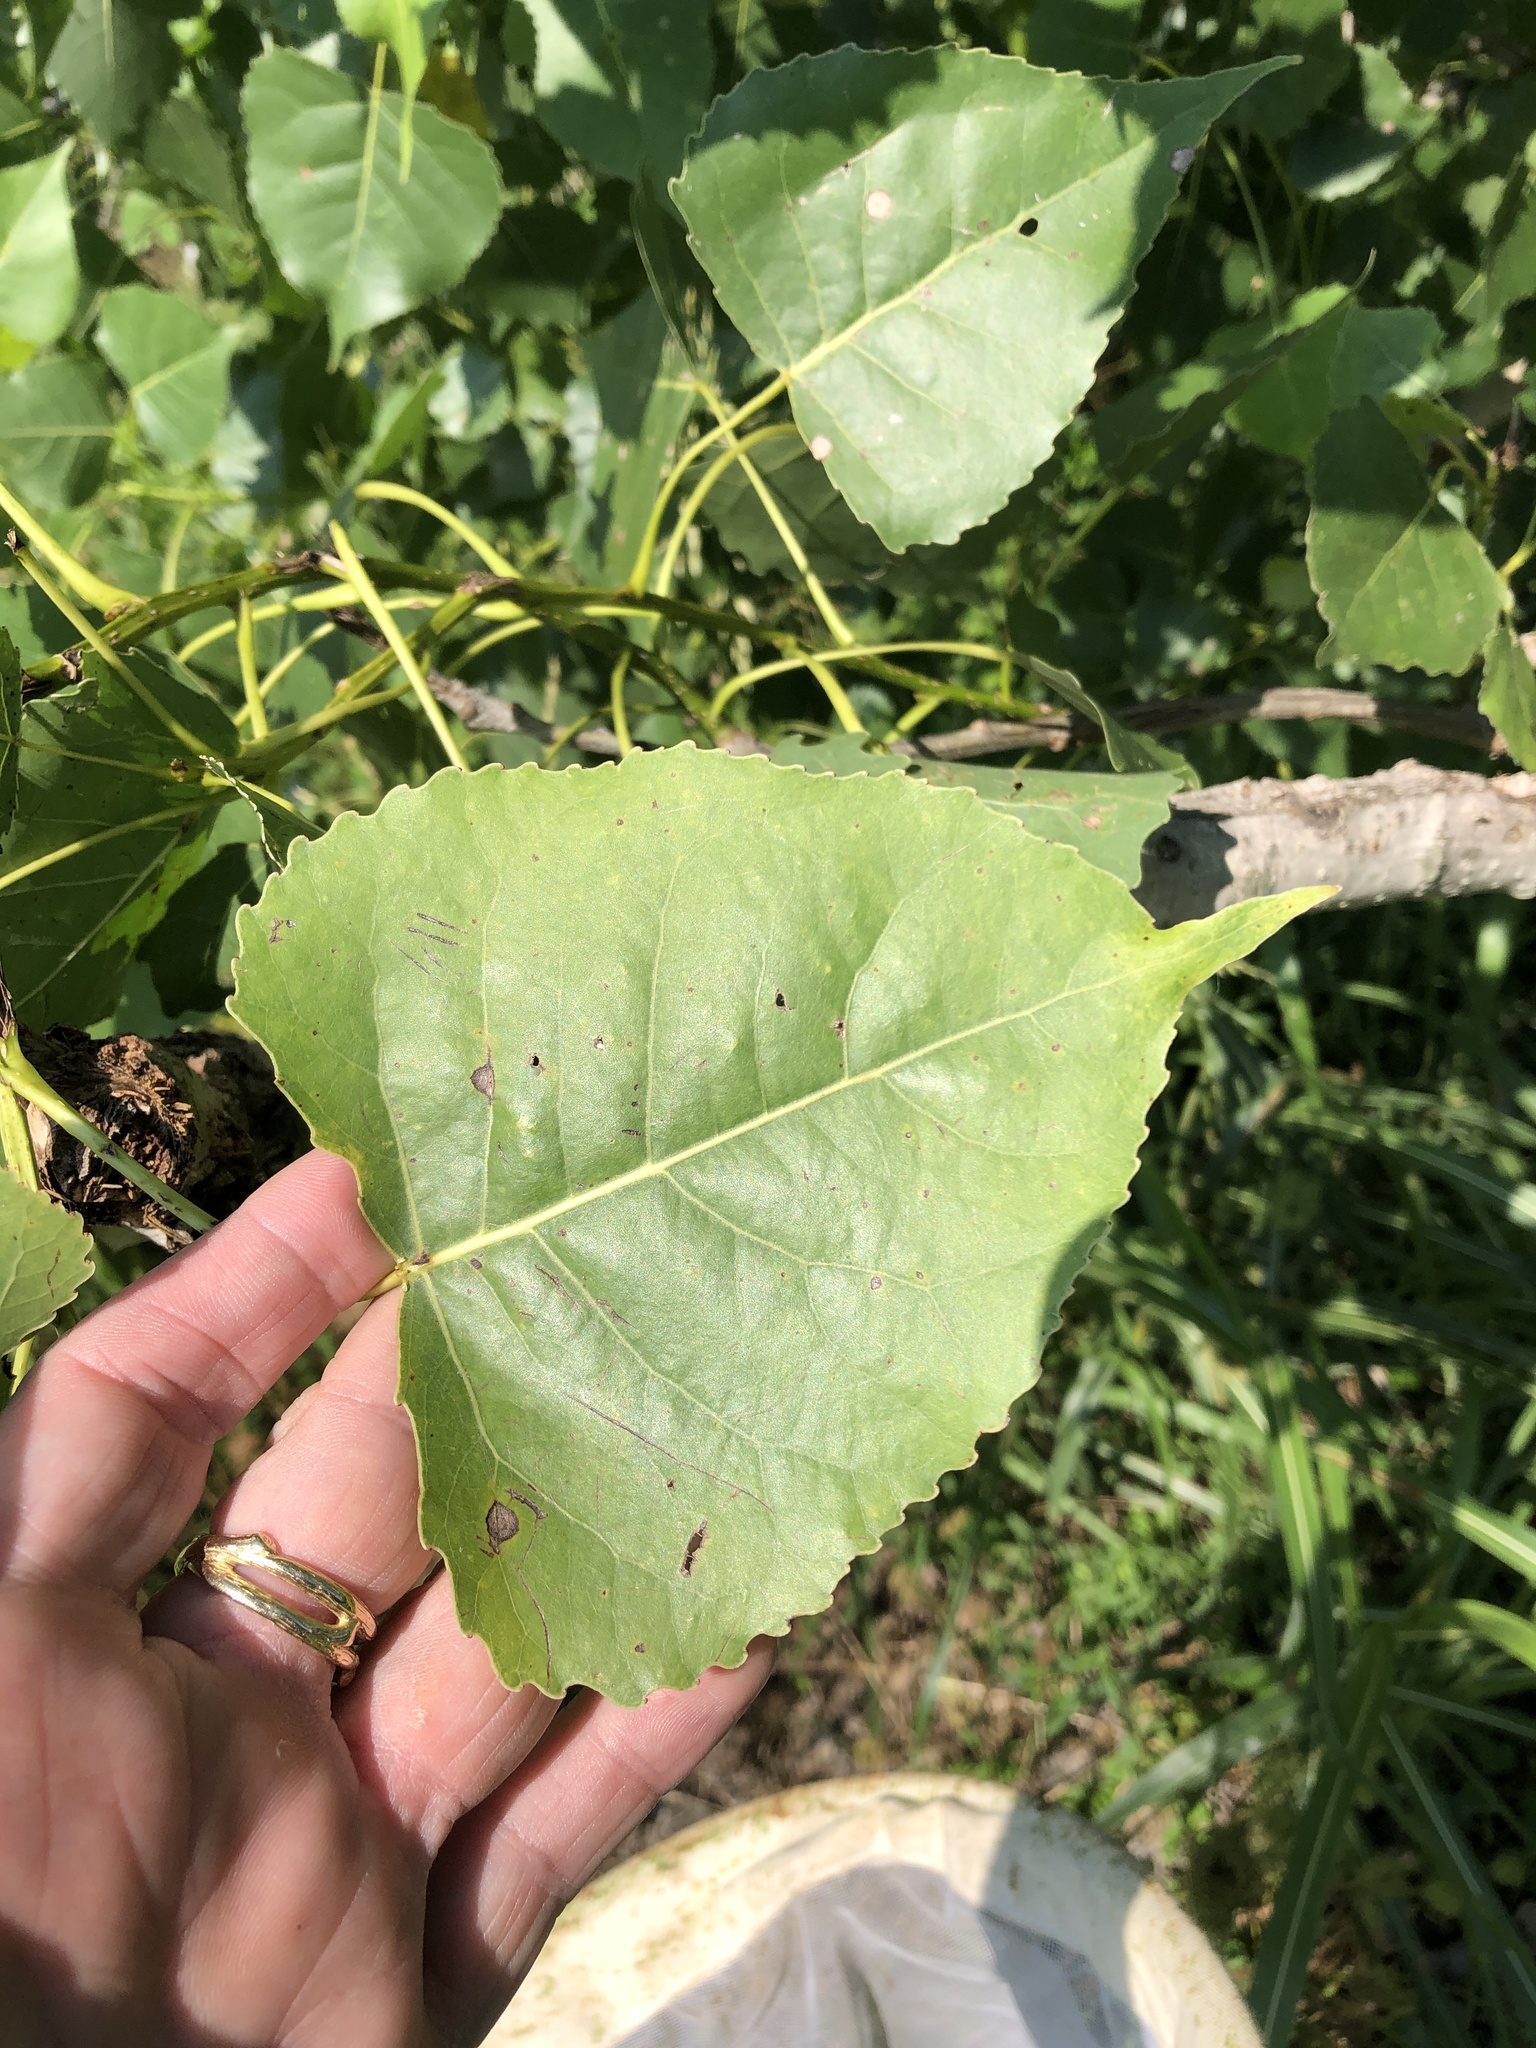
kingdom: Plantae
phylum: Tracheophyta
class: Magnoliopsida
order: Malpighiales
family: Salicaceae
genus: Populus
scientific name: Populus deltoides
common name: Eastern cottonwood
